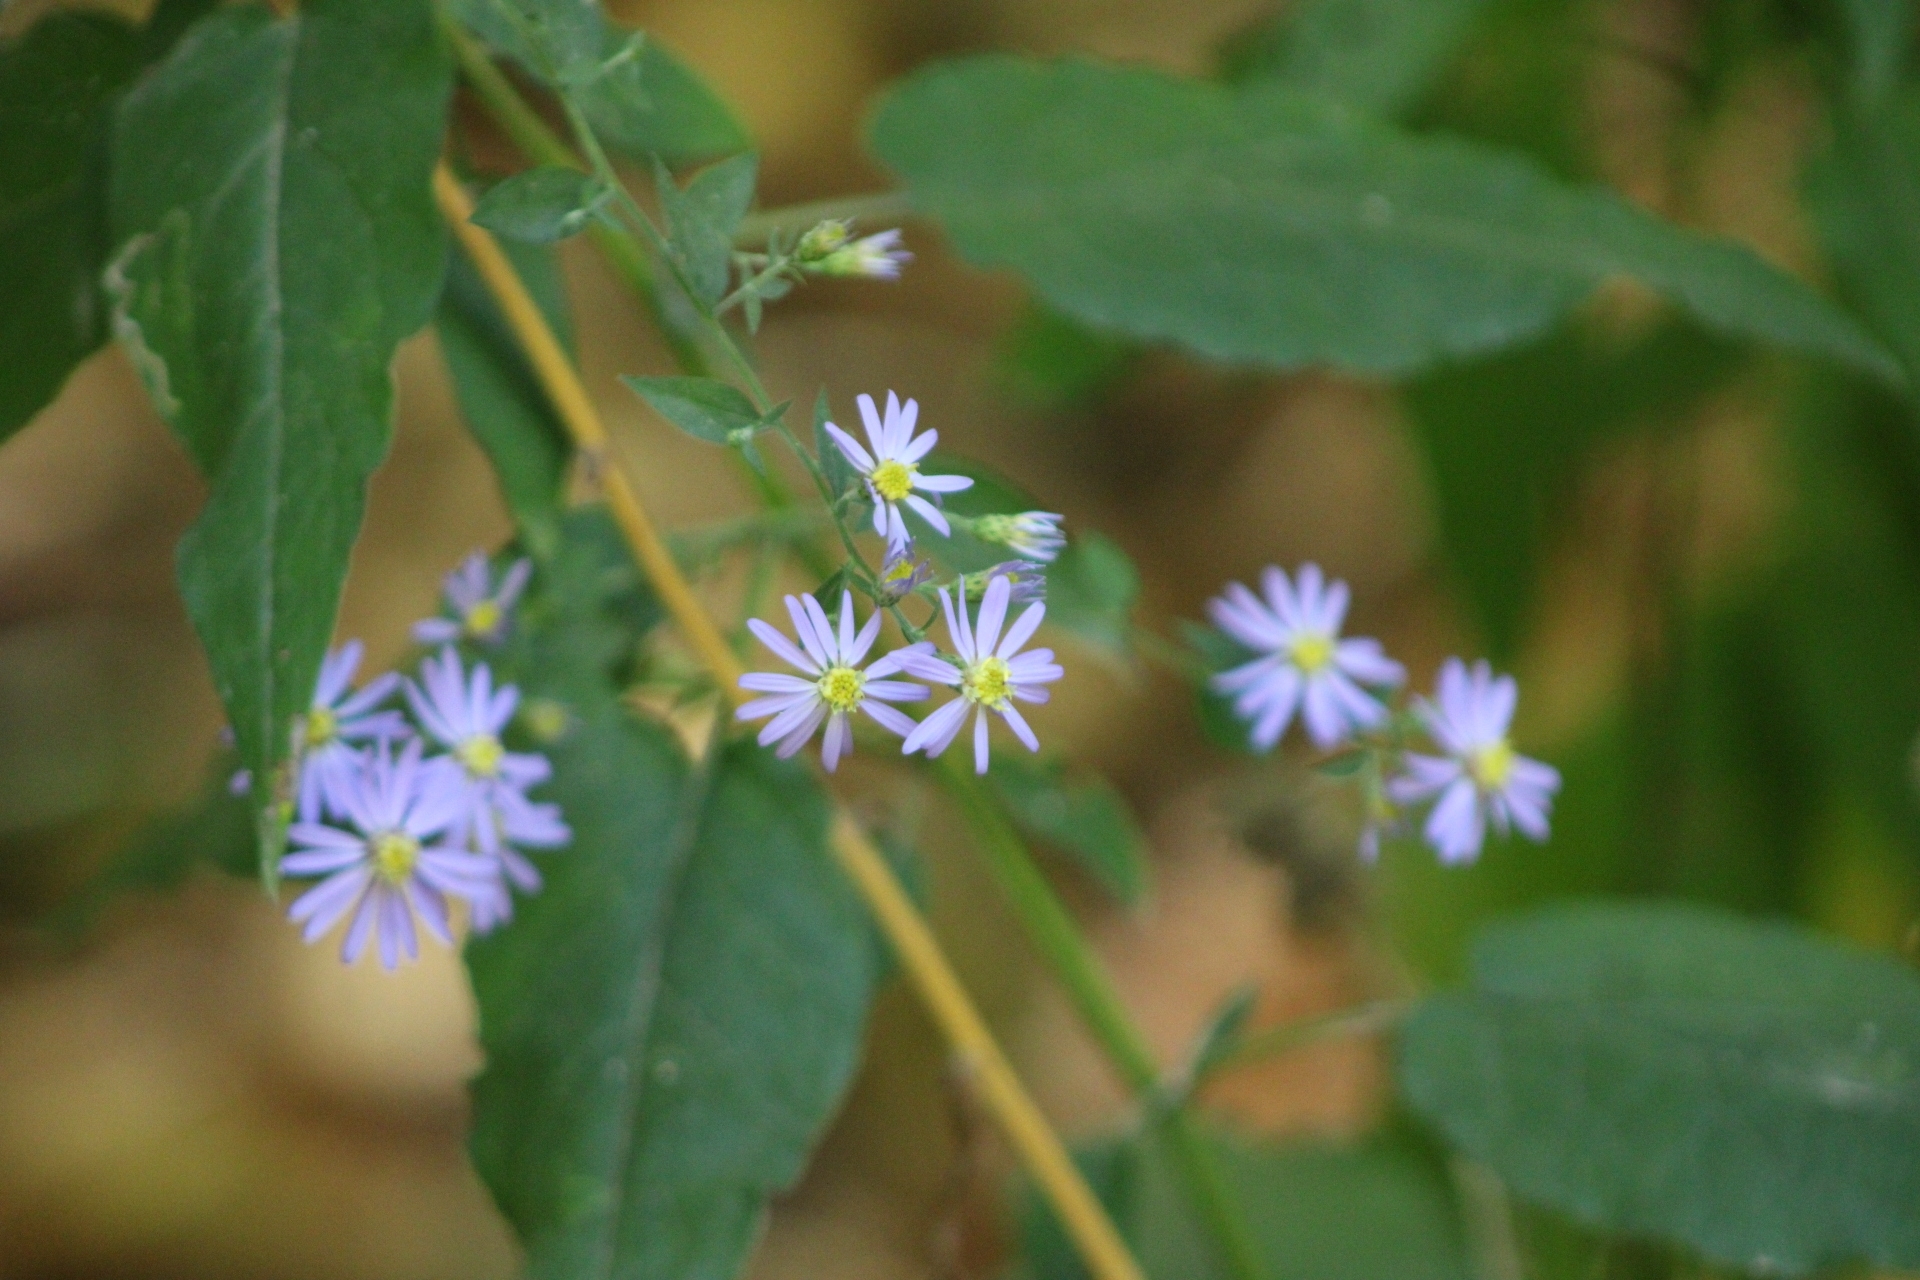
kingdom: Plantae
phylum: Tracheophyta
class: Magnoliopsida
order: Asterales
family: Asteraceae
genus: Symphyotrichum
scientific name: Symphyotrichum shortii
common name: Short's aster
